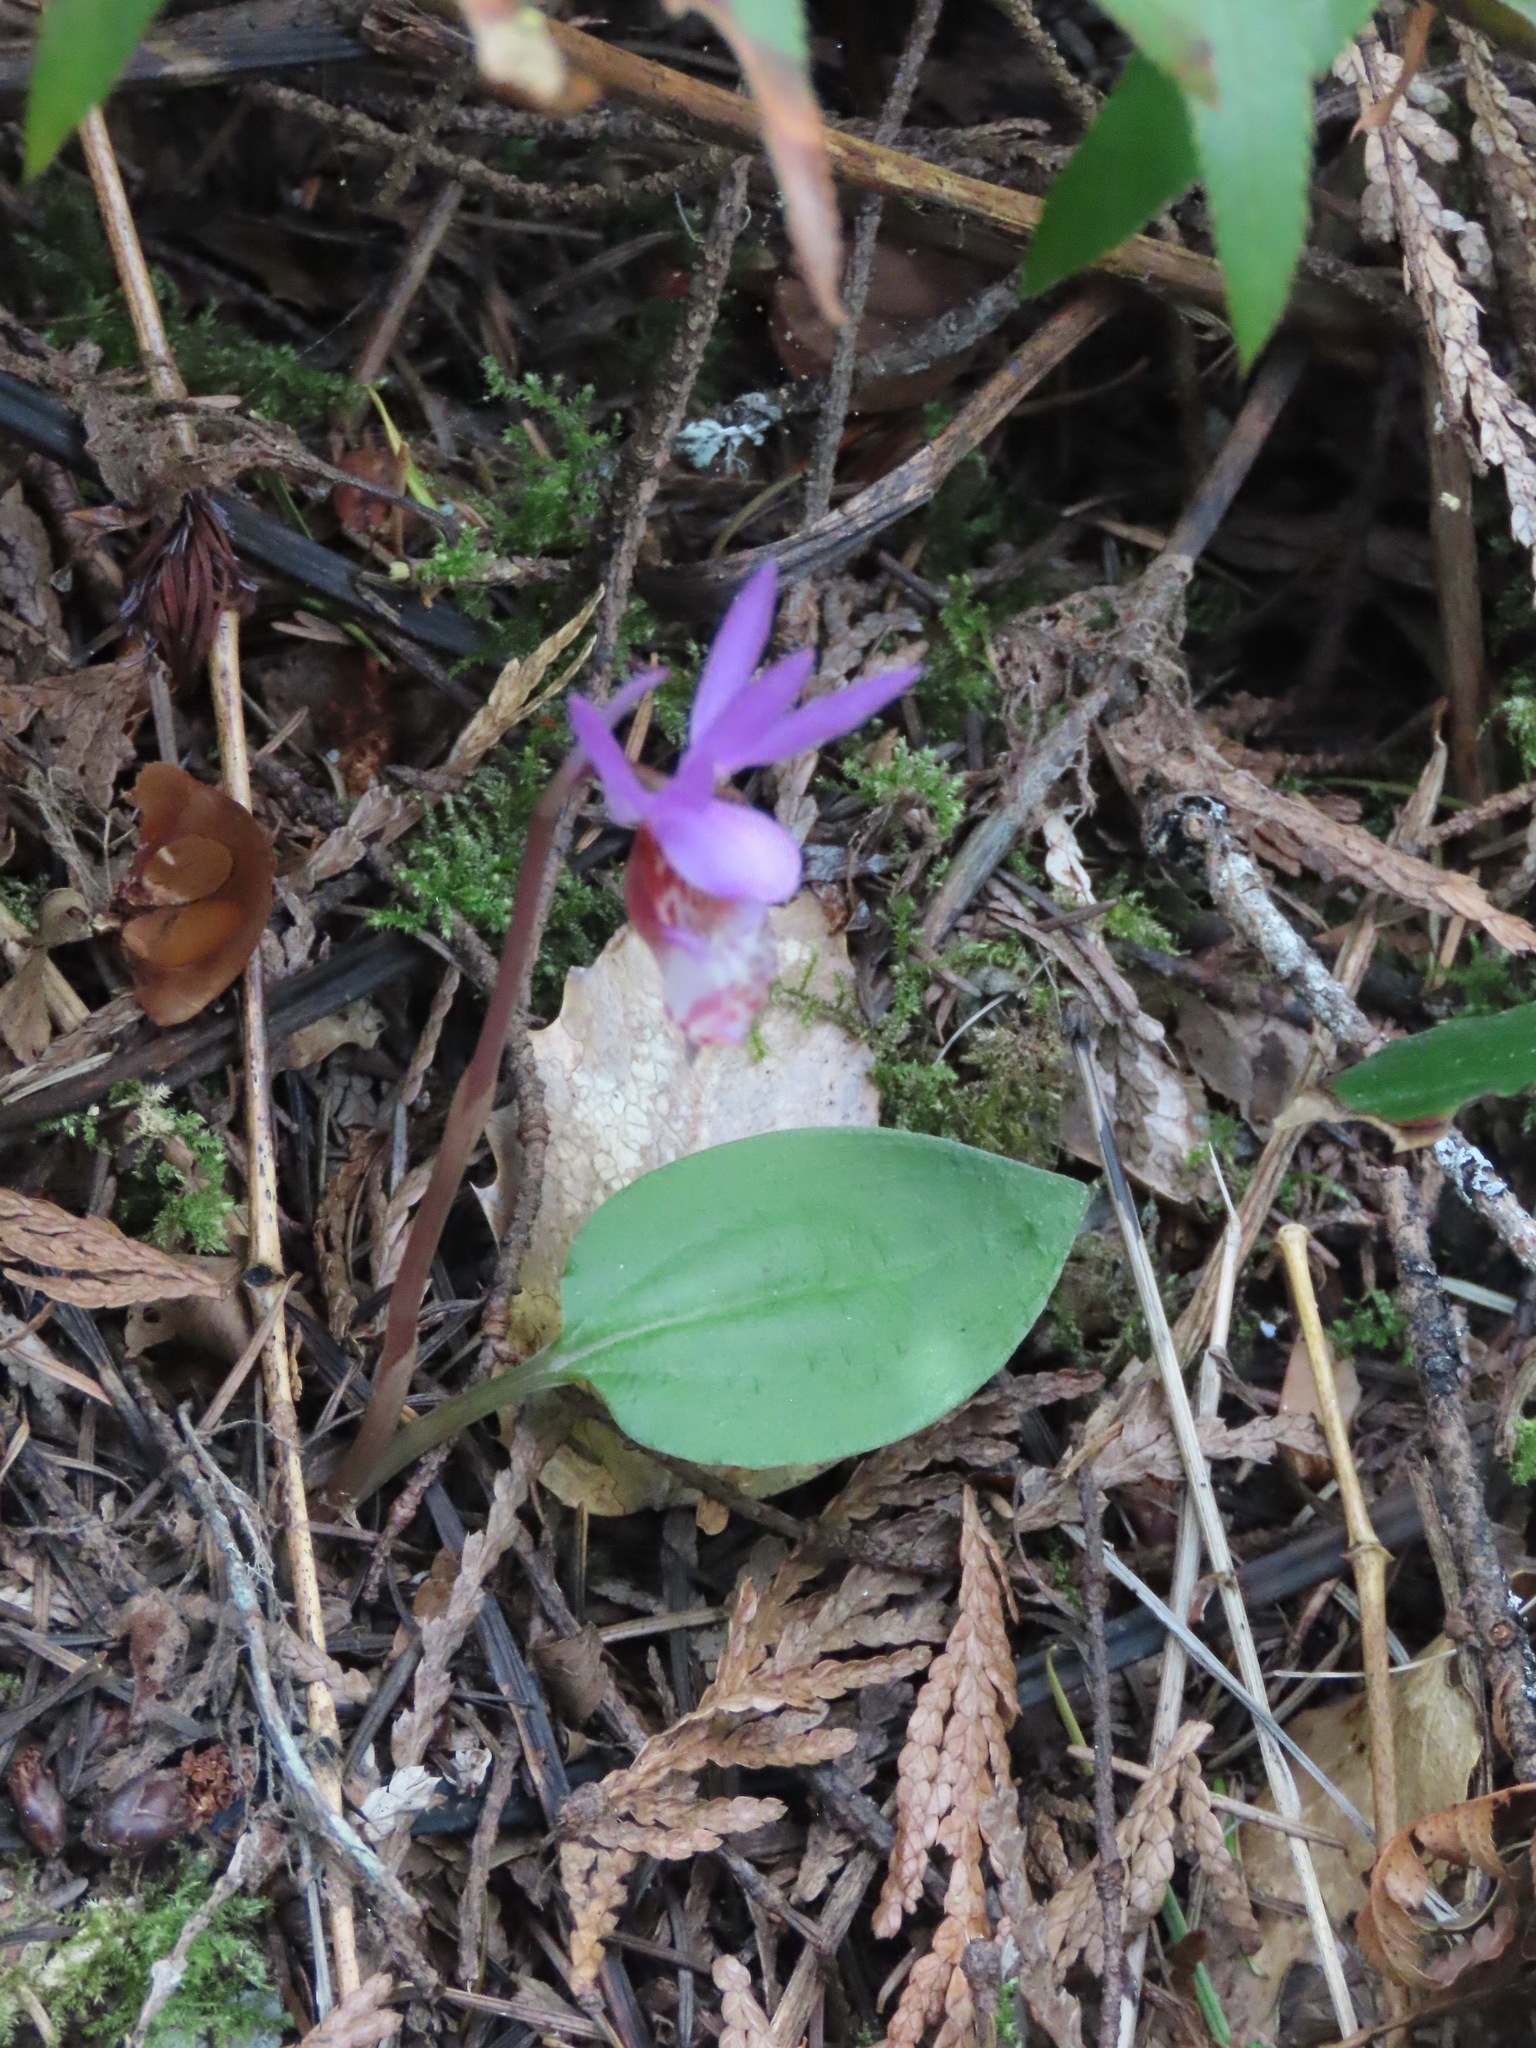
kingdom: Plantae
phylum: Tracheophyta
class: Liliopsida
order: Asparagales
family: Orchidaceae
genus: Calypso
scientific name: Calypso bulbosa
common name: Calypso
